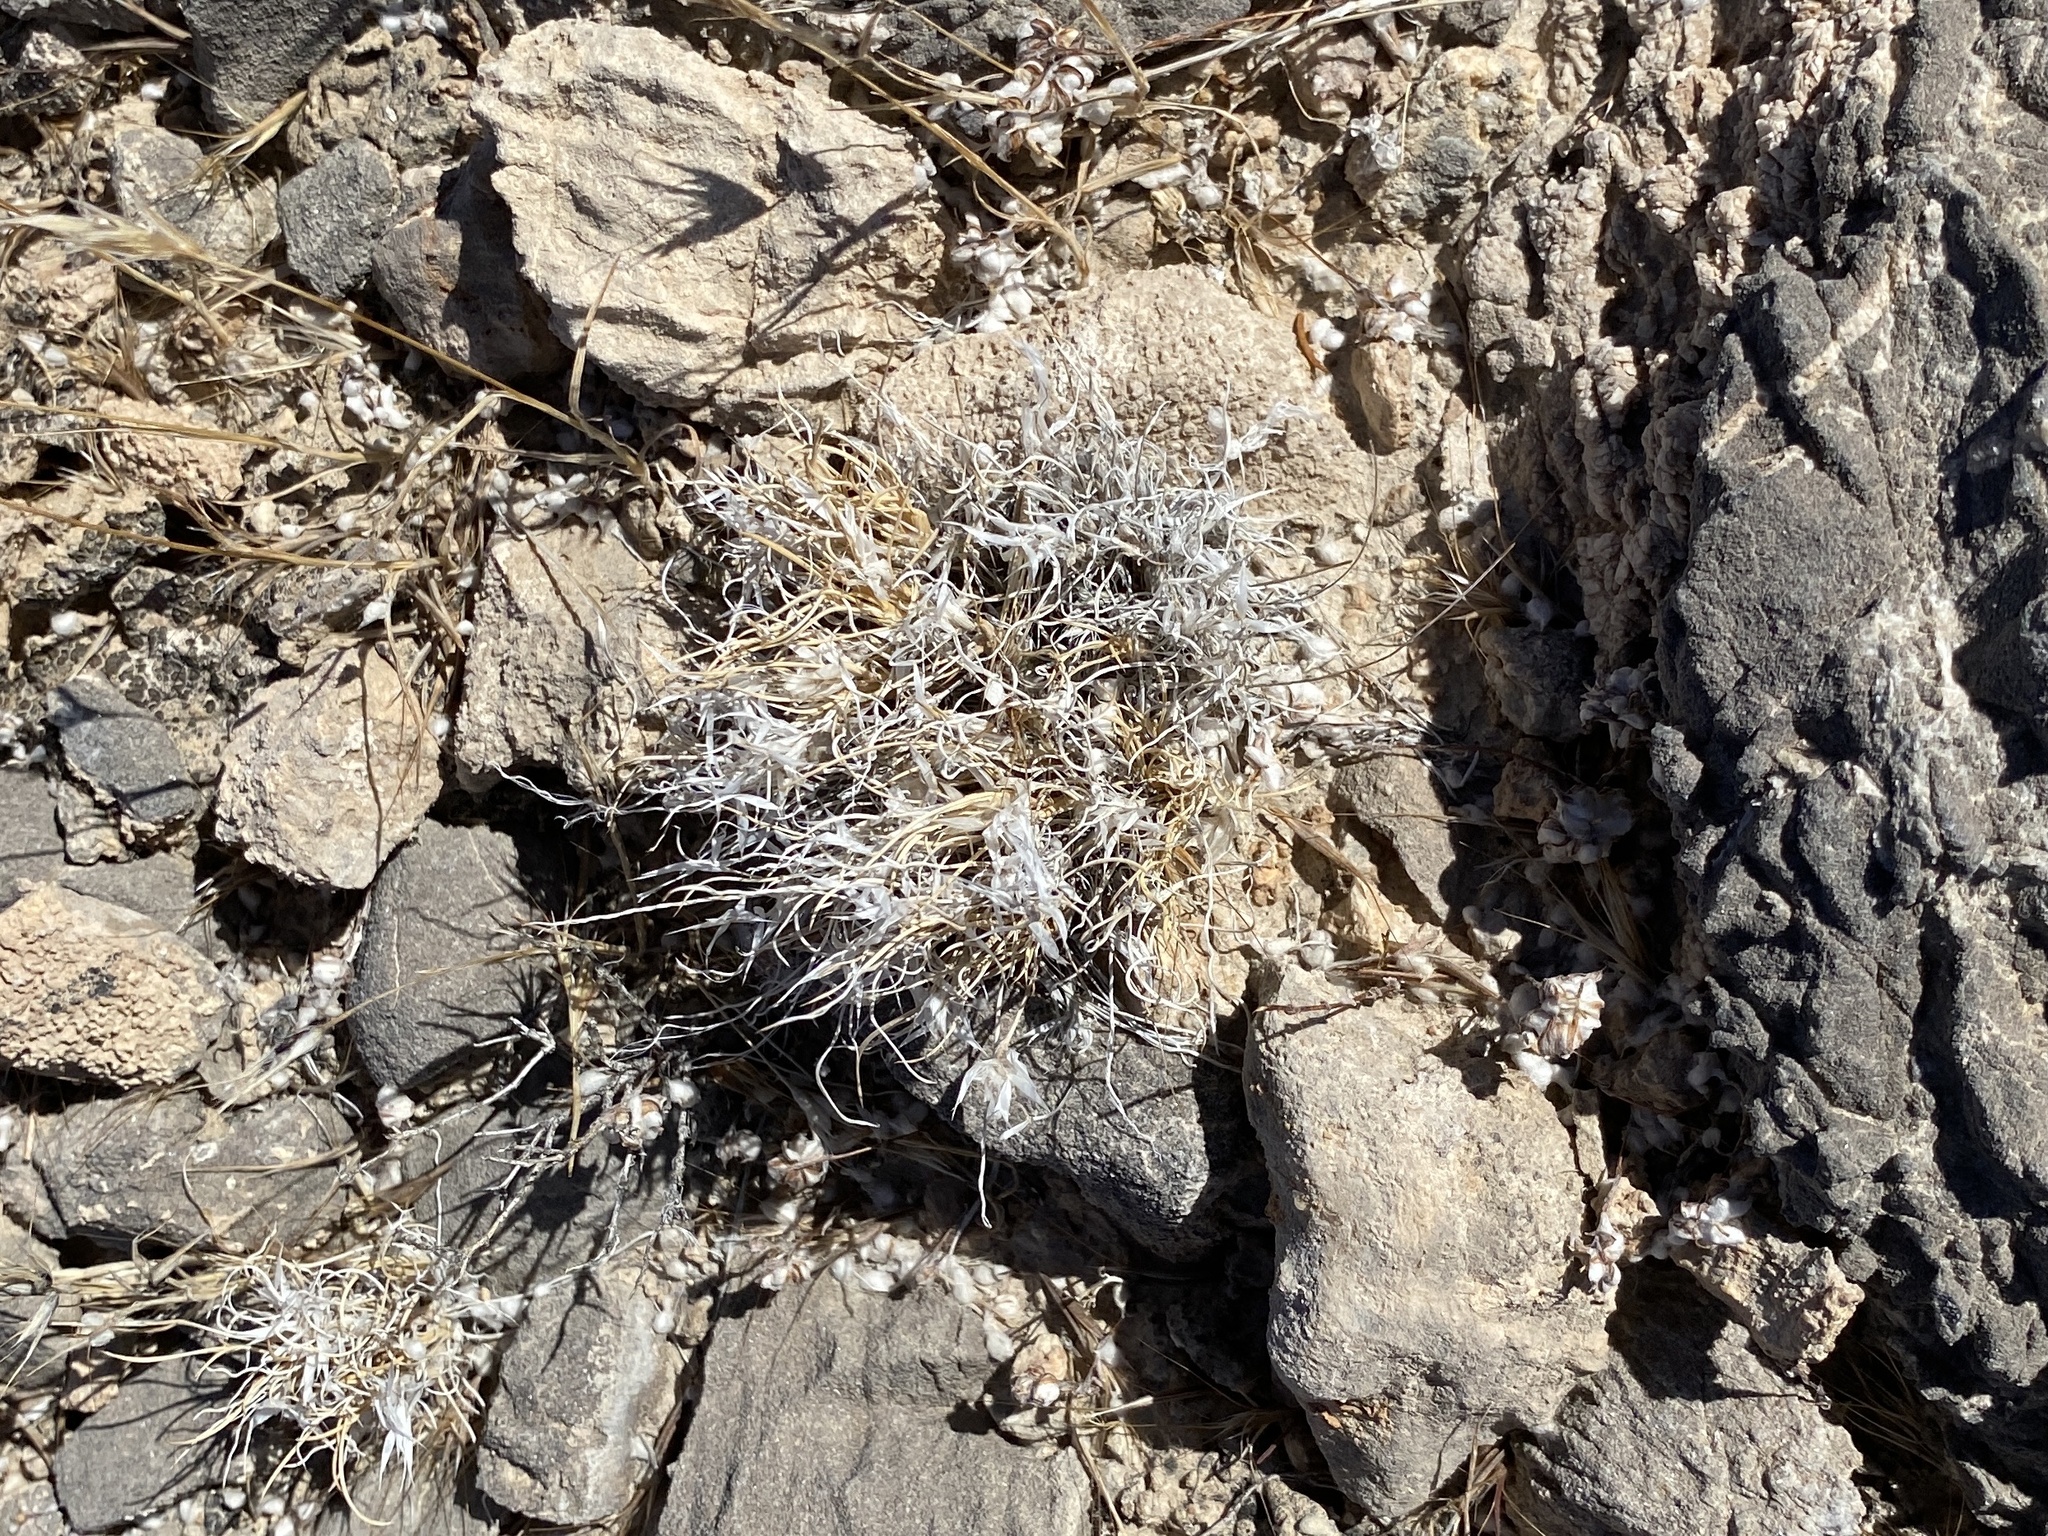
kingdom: Plantae
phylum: Tracheophyta
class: Liliopsida
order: Poales
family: Poaceae
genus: Dasyochloa
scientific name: Dasyochloa pulchella
